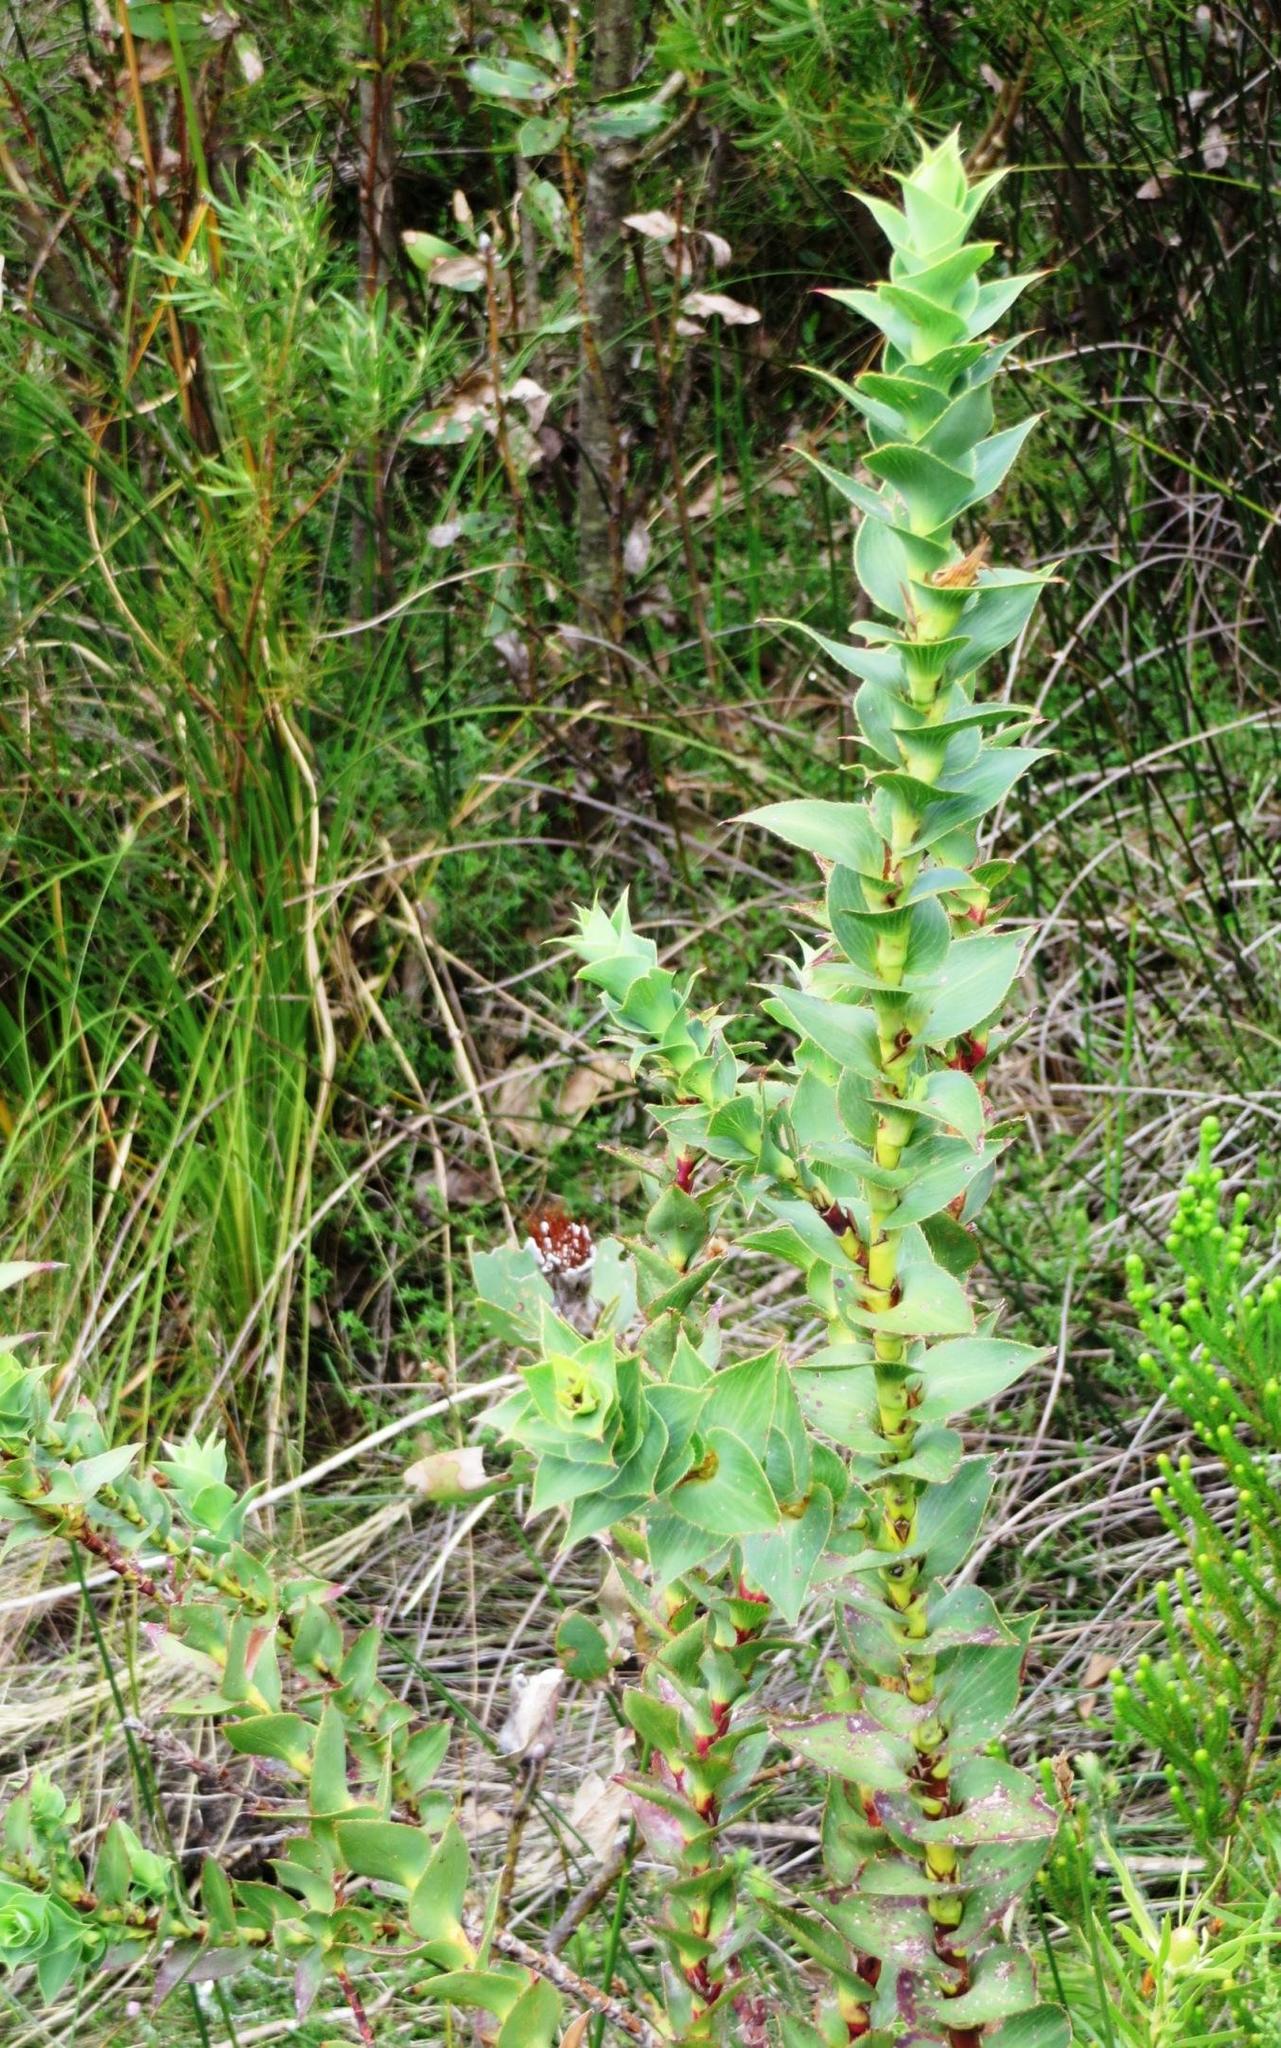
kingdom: Plantae
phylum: Tracheophyta
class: Magnoliopsida
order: Rosales
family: Rosaceae
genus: Cliffortia
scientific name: Cliffortia denticulata
